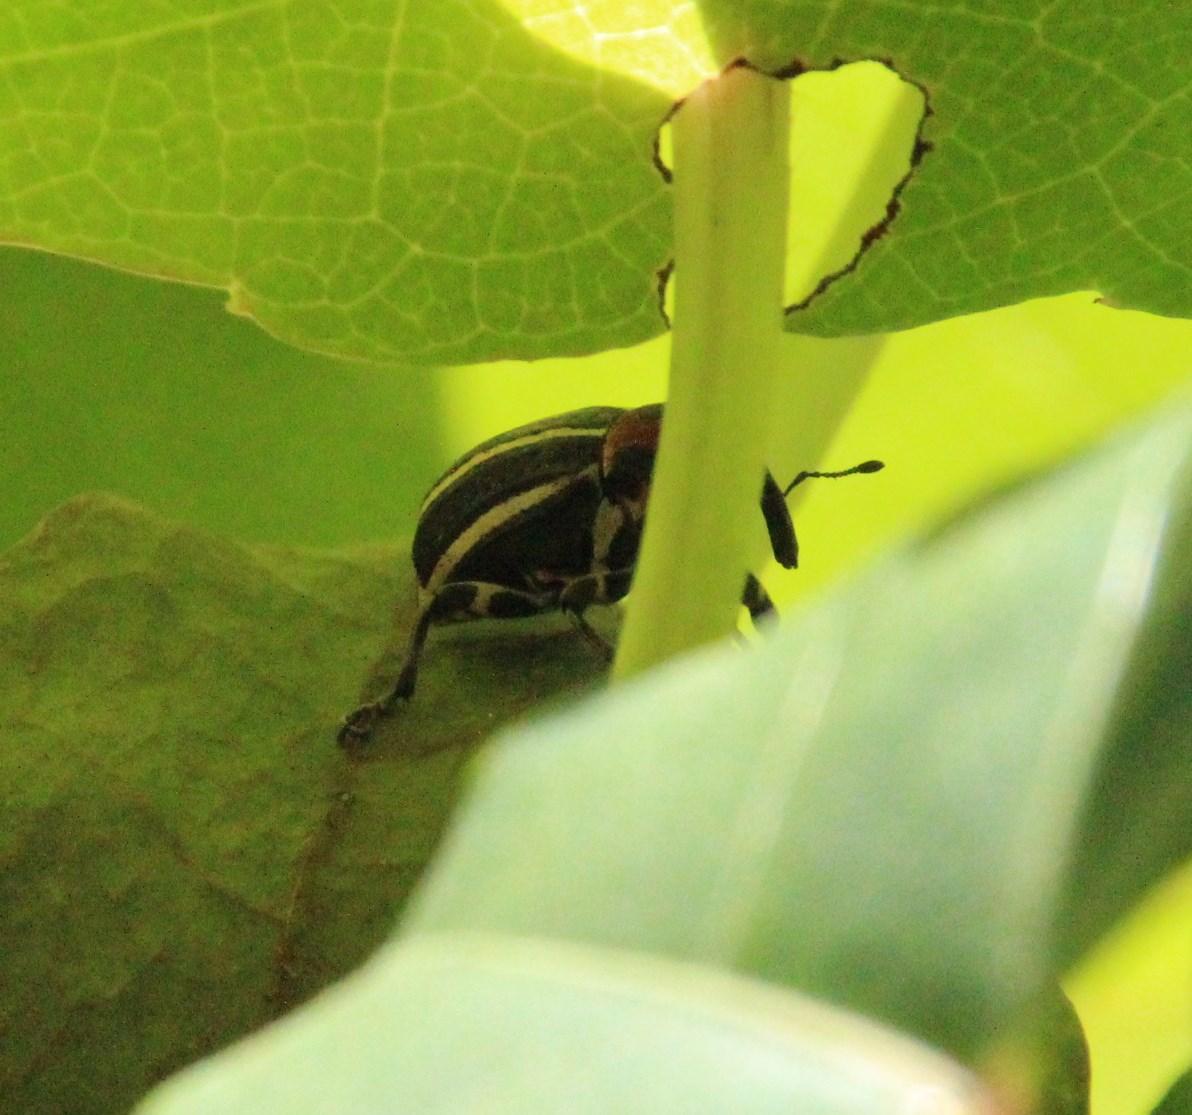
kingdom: Animalia
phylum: Arthropoda
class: Insecta
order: Coleoptera
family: Curculionidae
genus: Neodiplogrammus
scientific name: Neodiplogrammus
